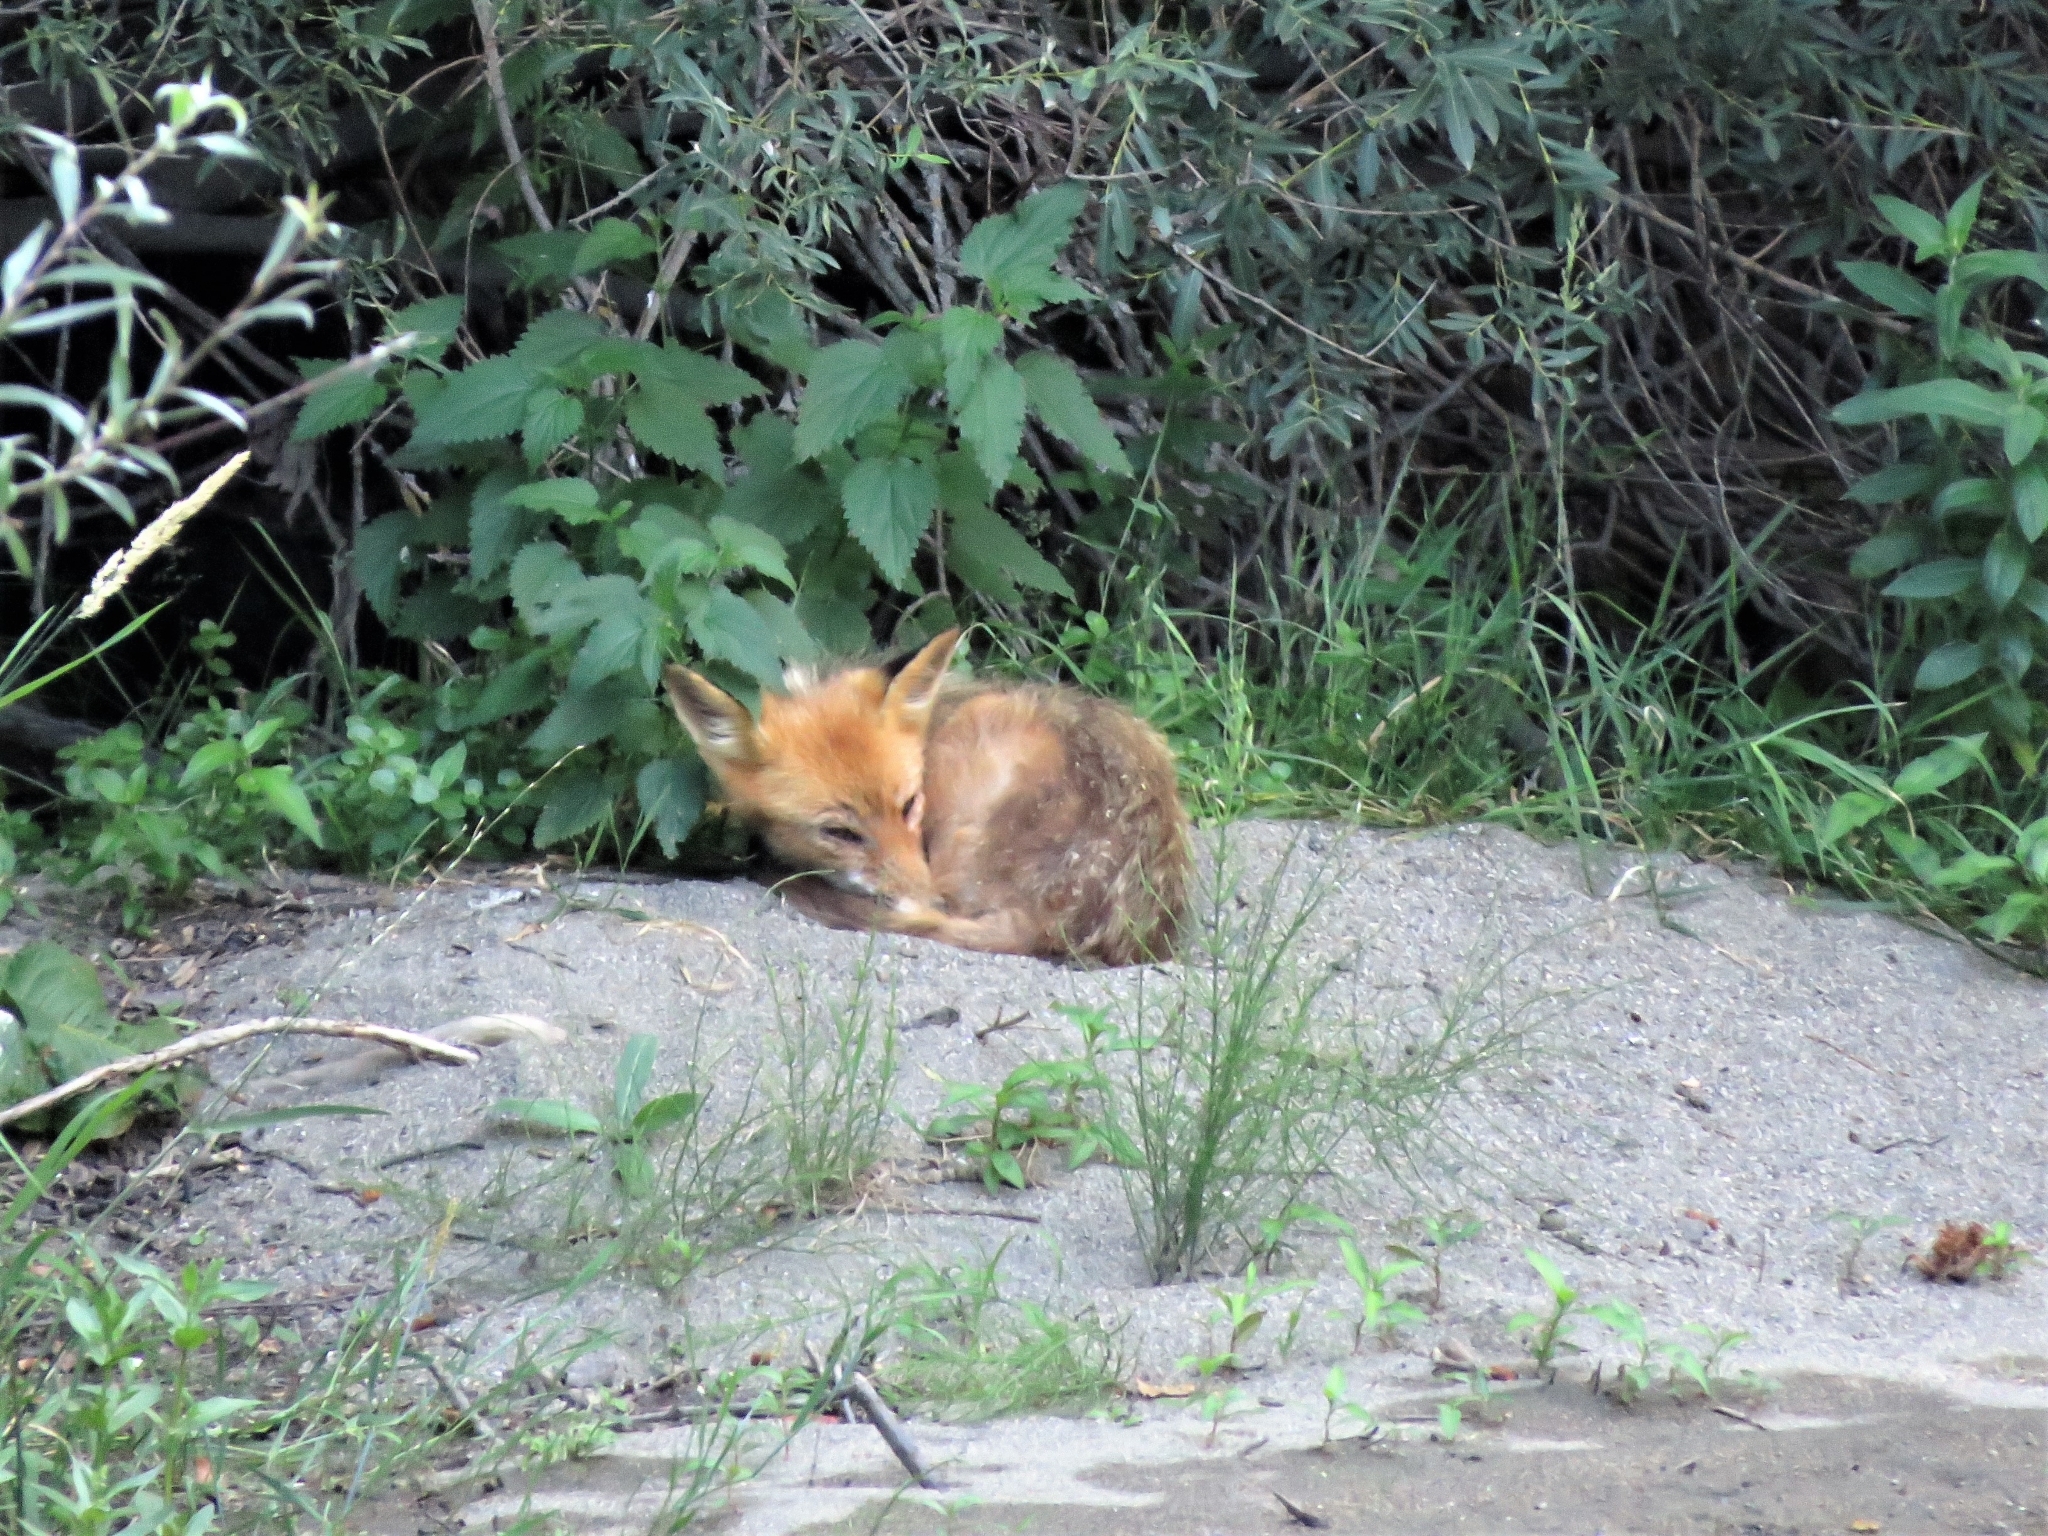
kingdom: Animalia
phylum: Chordata
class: Mammalia
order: Carnivora
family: Canidae
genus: Vulpes
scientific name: Vulpes vulpes
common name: Red fox
